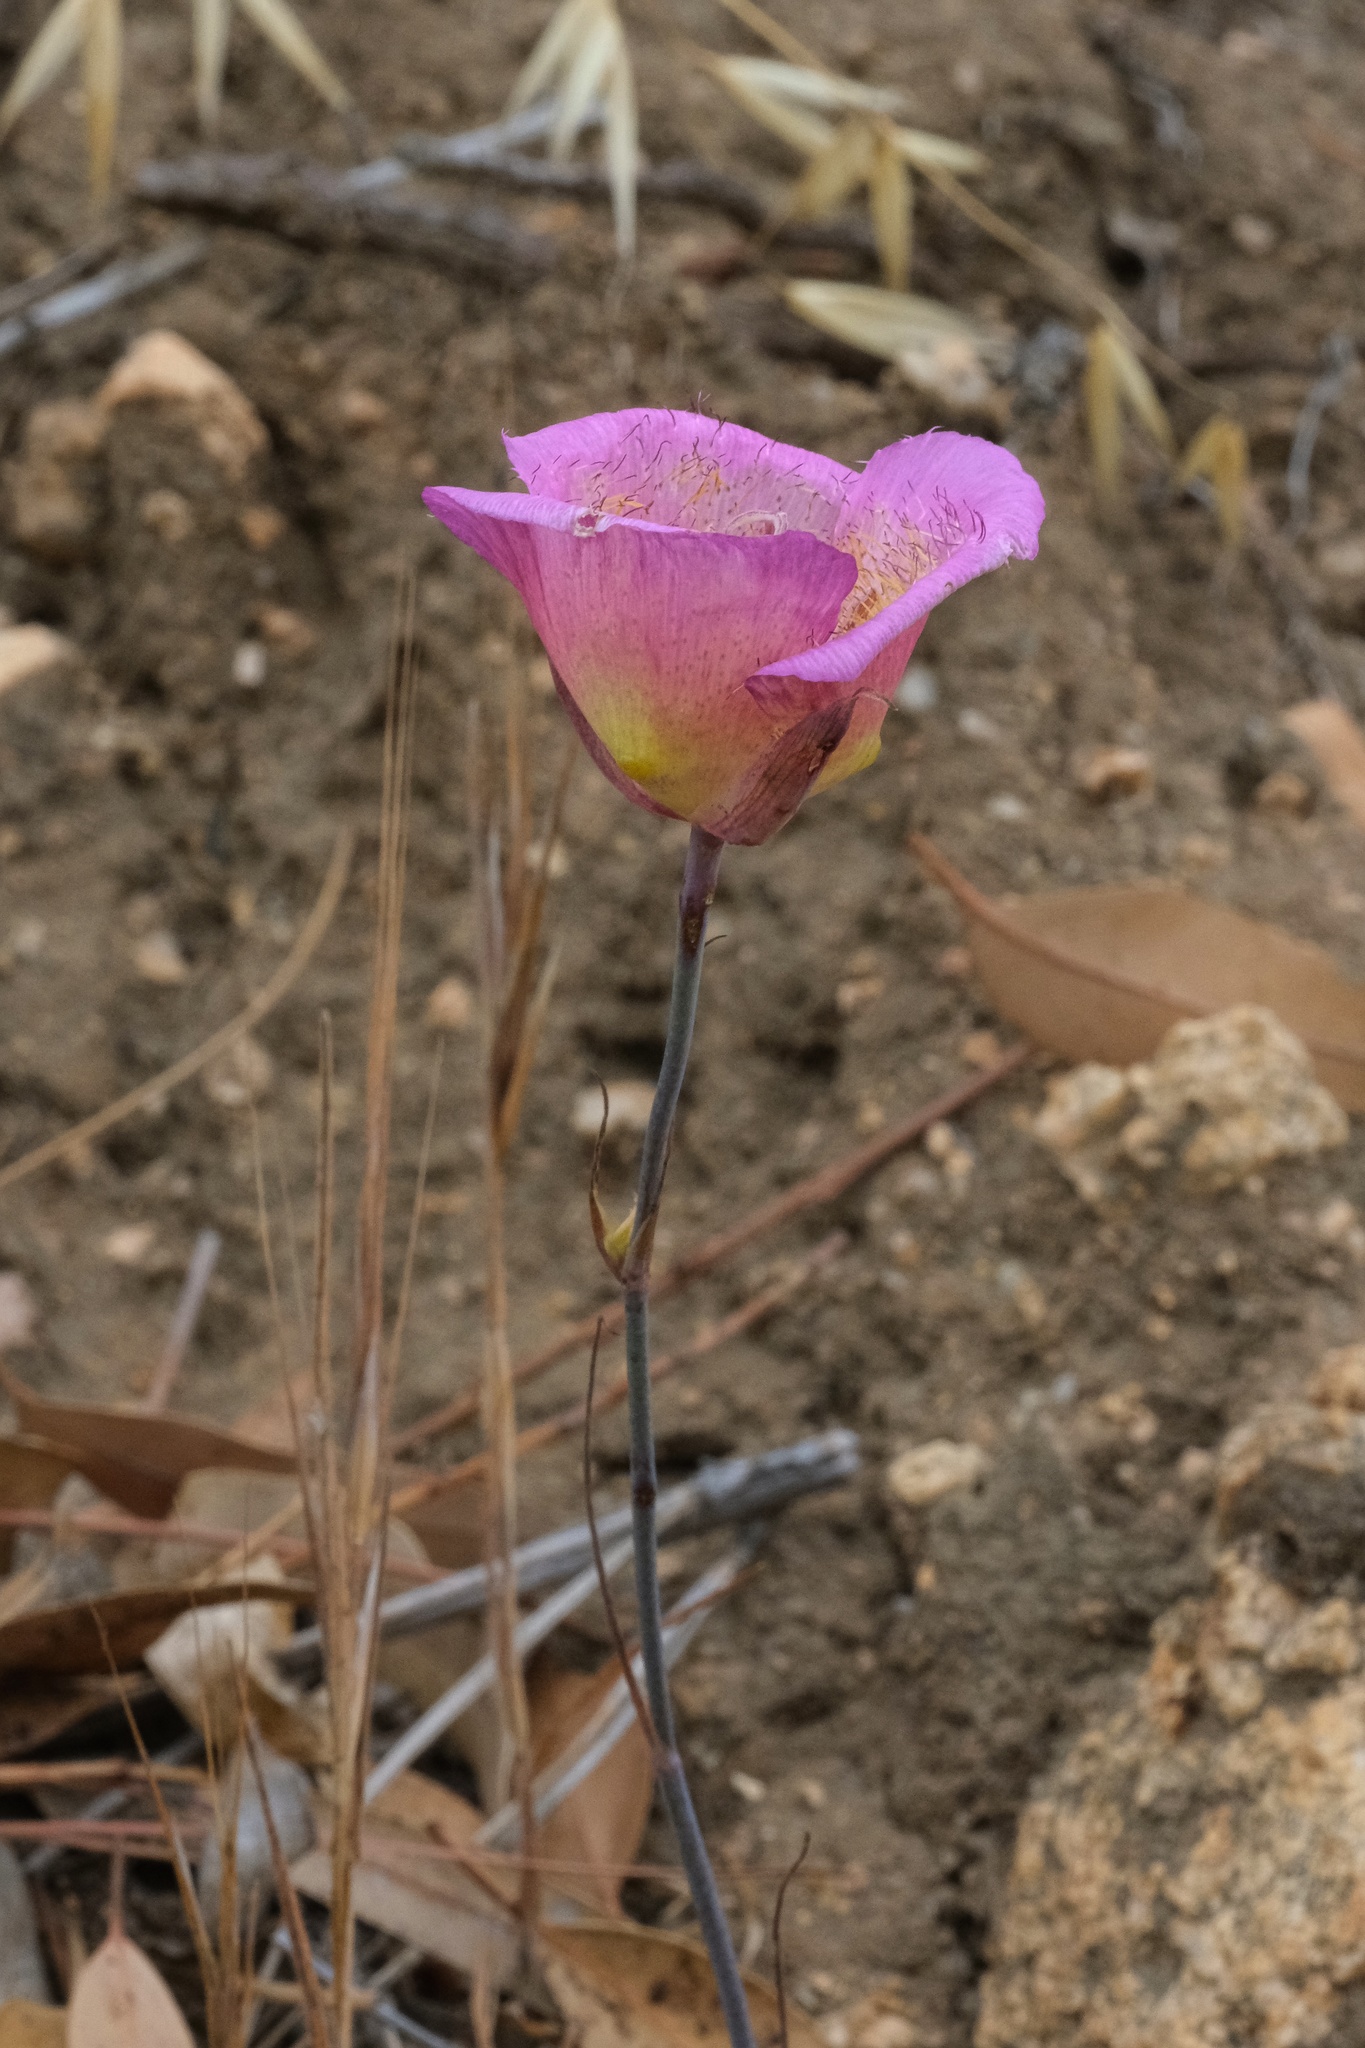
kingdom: Plantae
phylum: Tracheophyta
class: Liliopsida
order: Liliales
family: Liliaceae
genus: Calochortus
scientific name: Calochortus plummerae
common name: Plummer's mariposa-lily
